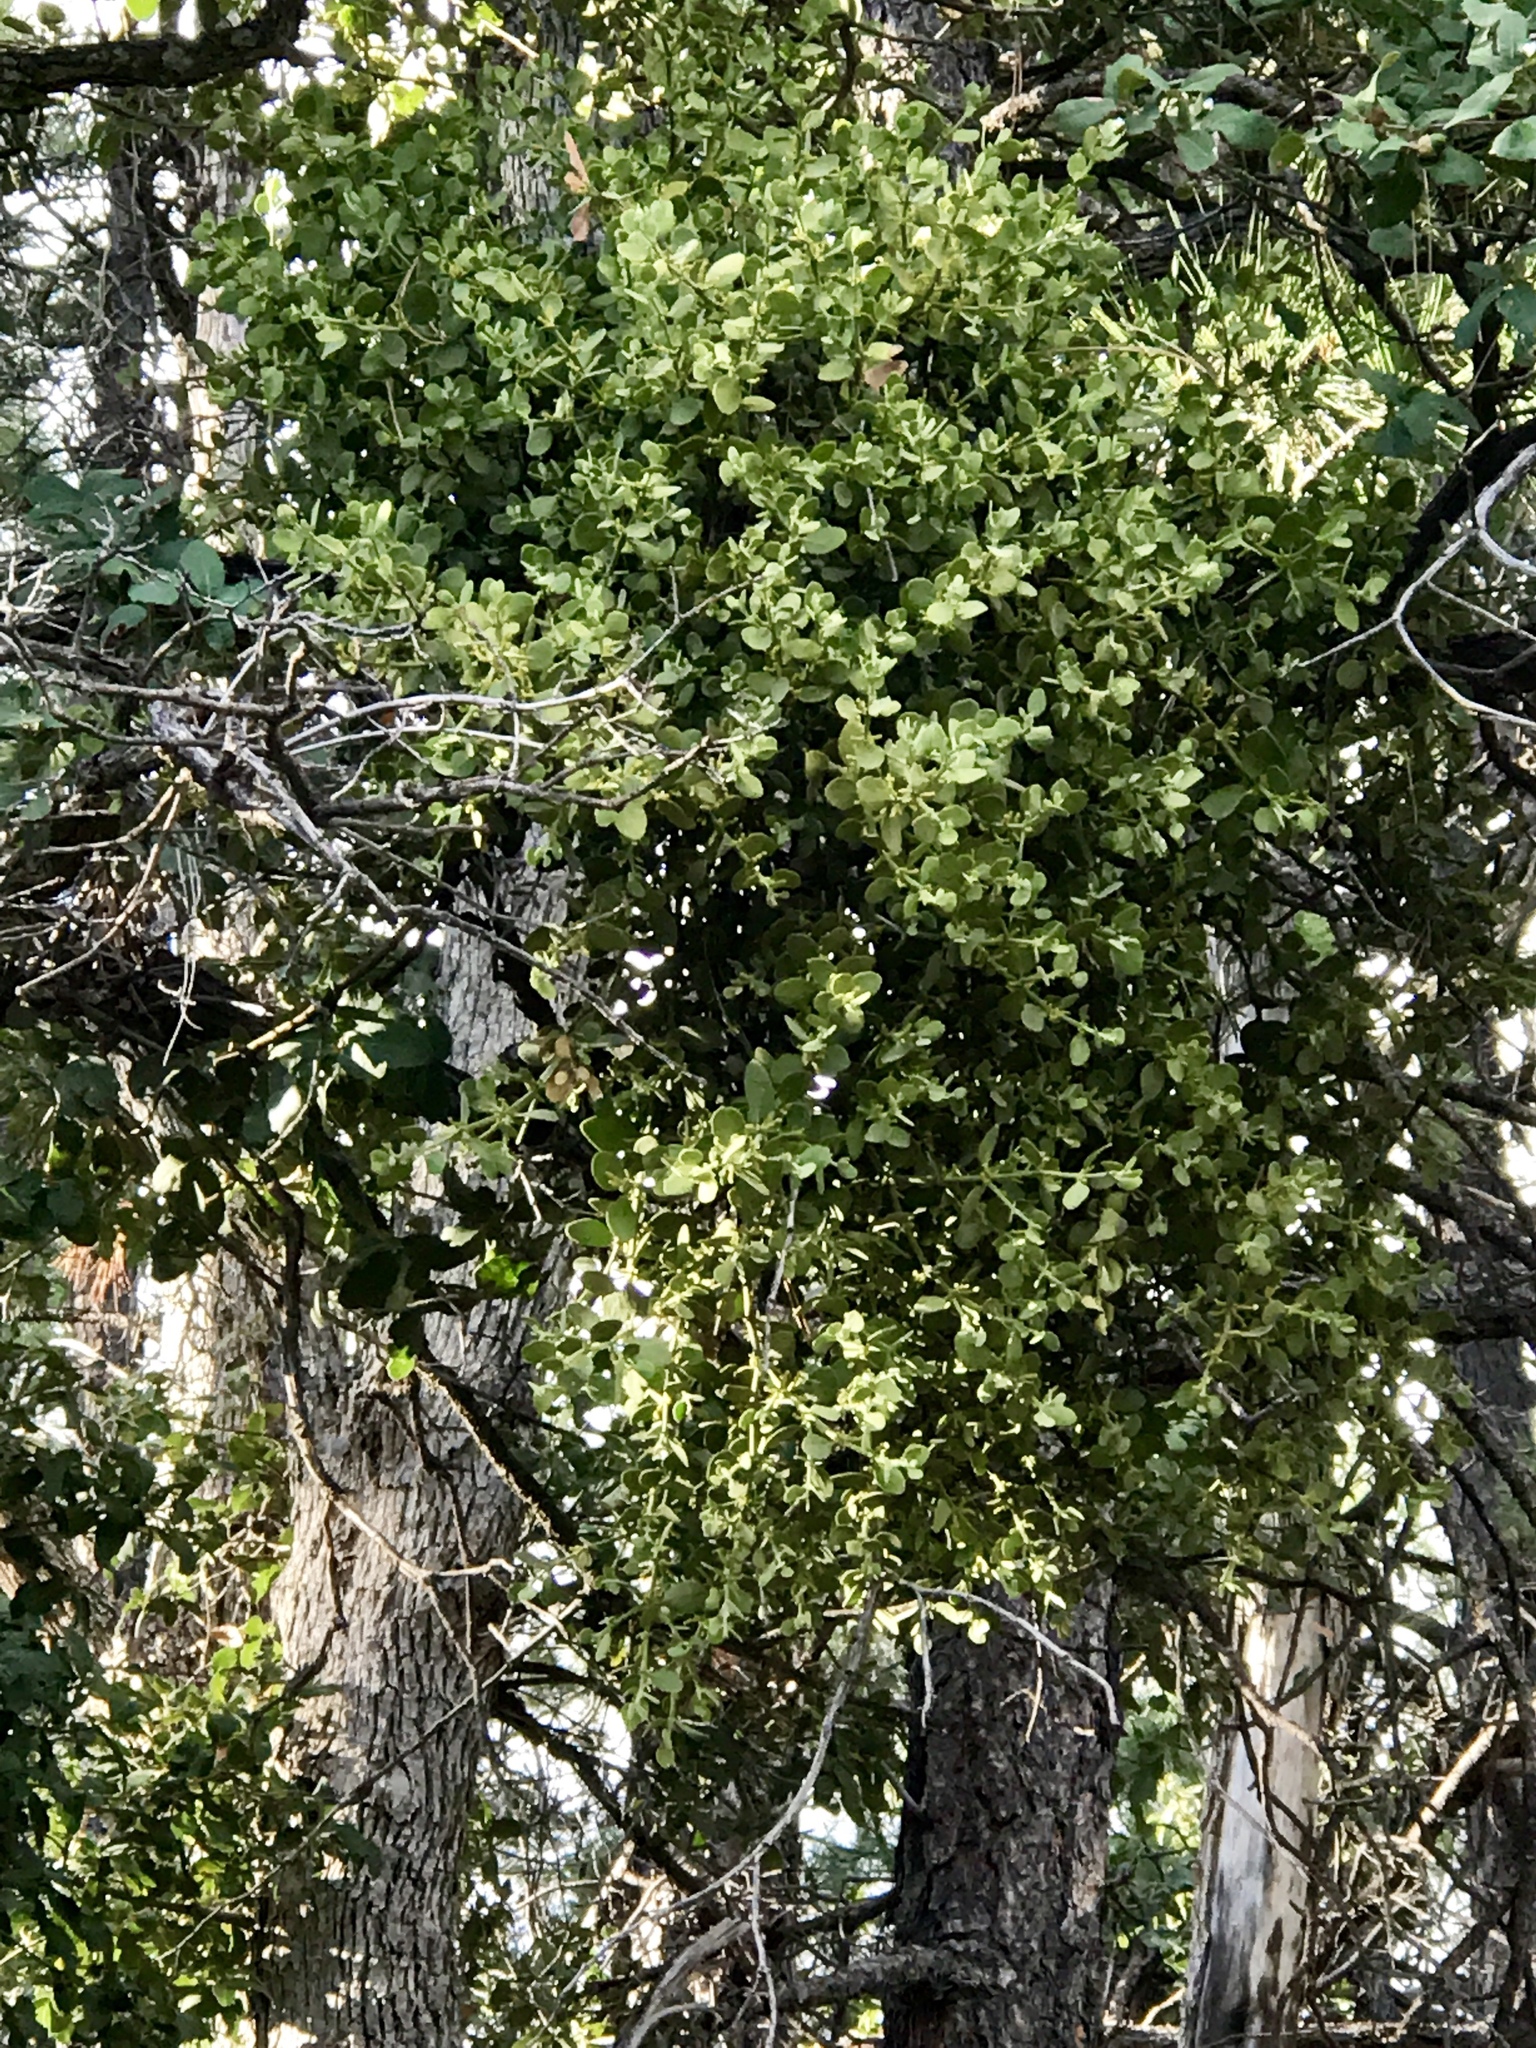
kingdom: Plantae
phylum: Tracheophyta
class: Magnoliopsida
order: Santalales
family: Viscaceae
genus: Phoradendron
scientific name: Phoradendron coryae
